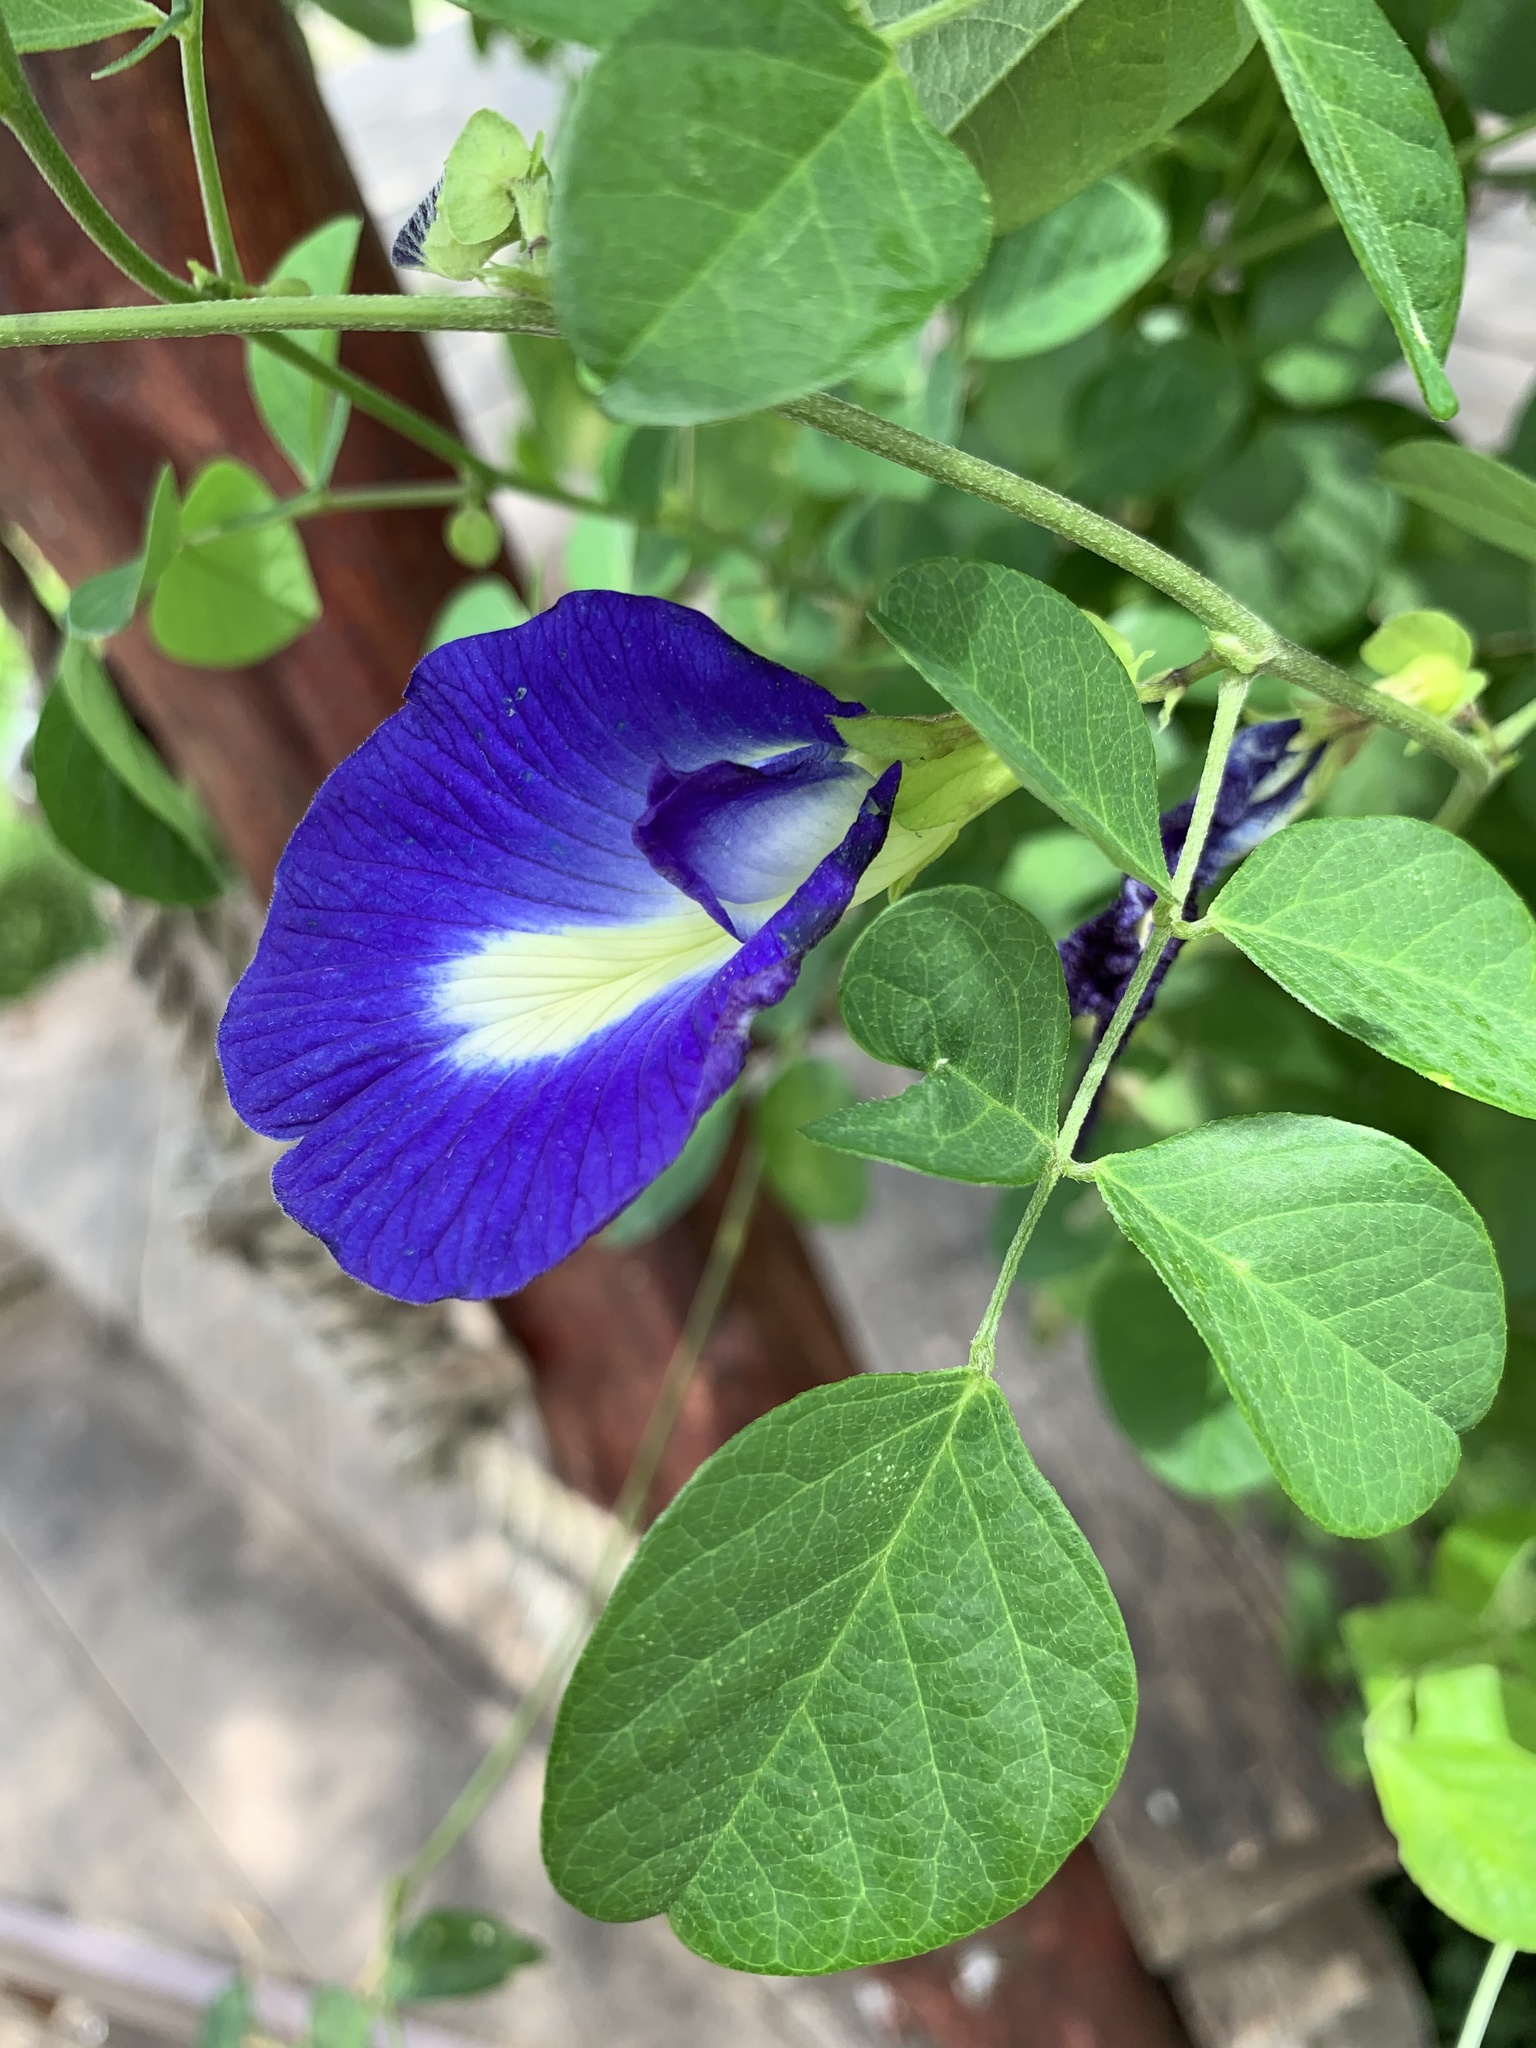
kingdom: Plantae
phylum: Tracheophyta
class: Magnoliopsida
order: Fabales
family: Fabaceae
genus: Clitoria
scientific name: Clitoria ternatea
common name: Asian pigeonwings
